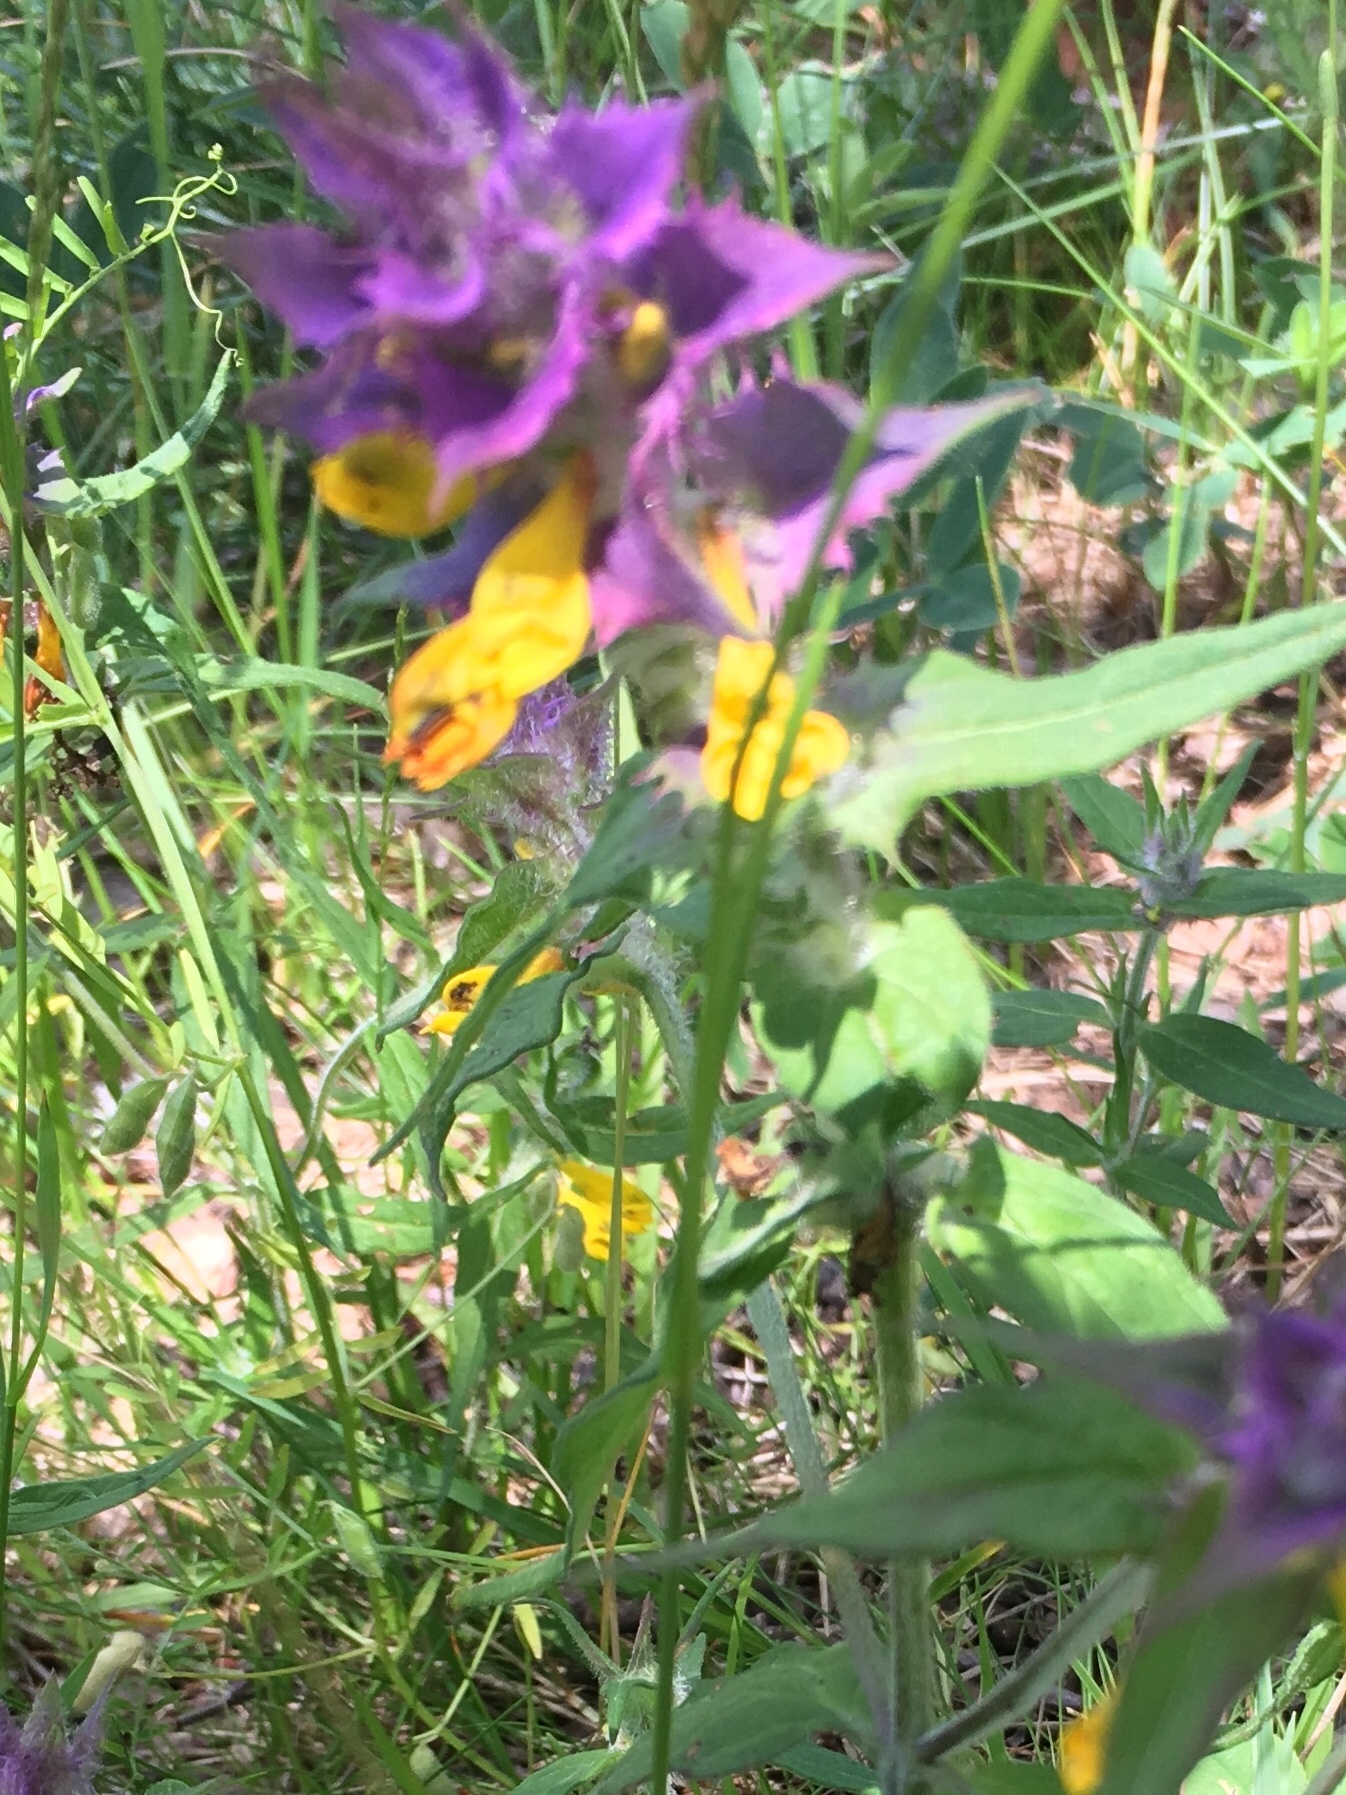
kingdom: Plantae
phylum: Tracheophyta
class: Magnoliopsida
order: Lamiales
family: Orobanchaceae
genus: Melampyrum
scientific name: Melampyrum nemorosum
